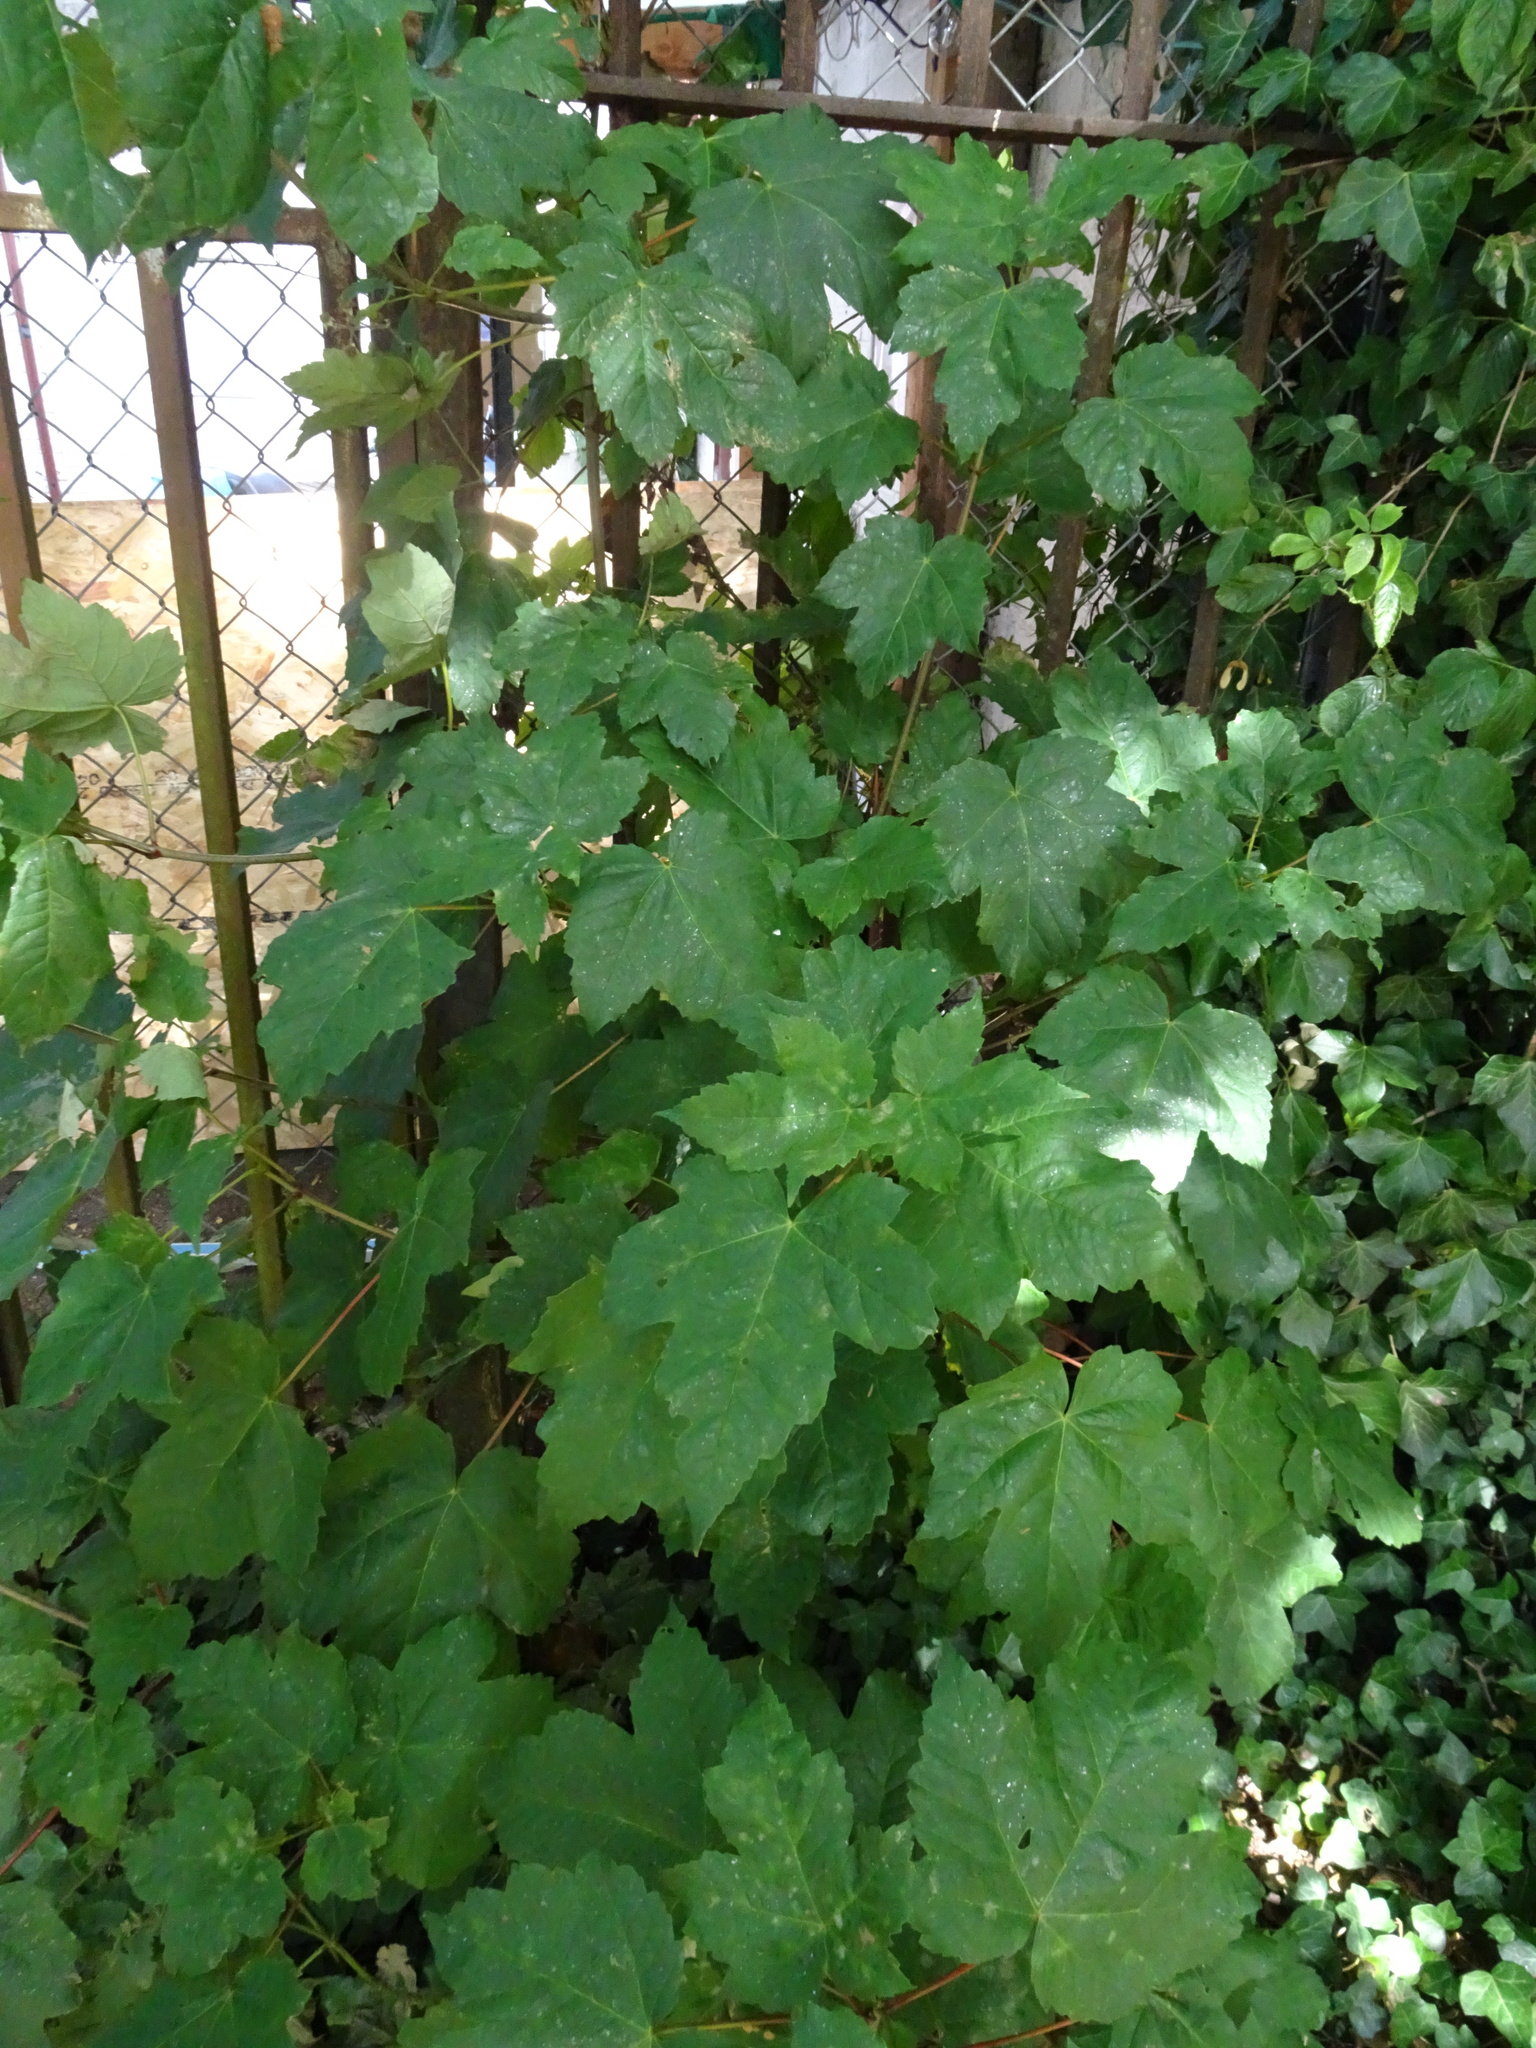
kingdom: Plantae
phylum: Tracheophyta
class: Magnoliopsida
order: Sapindales
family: Sapindaceae
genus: Acer
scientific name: Acer pseudoplatanus
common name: Sycamore
